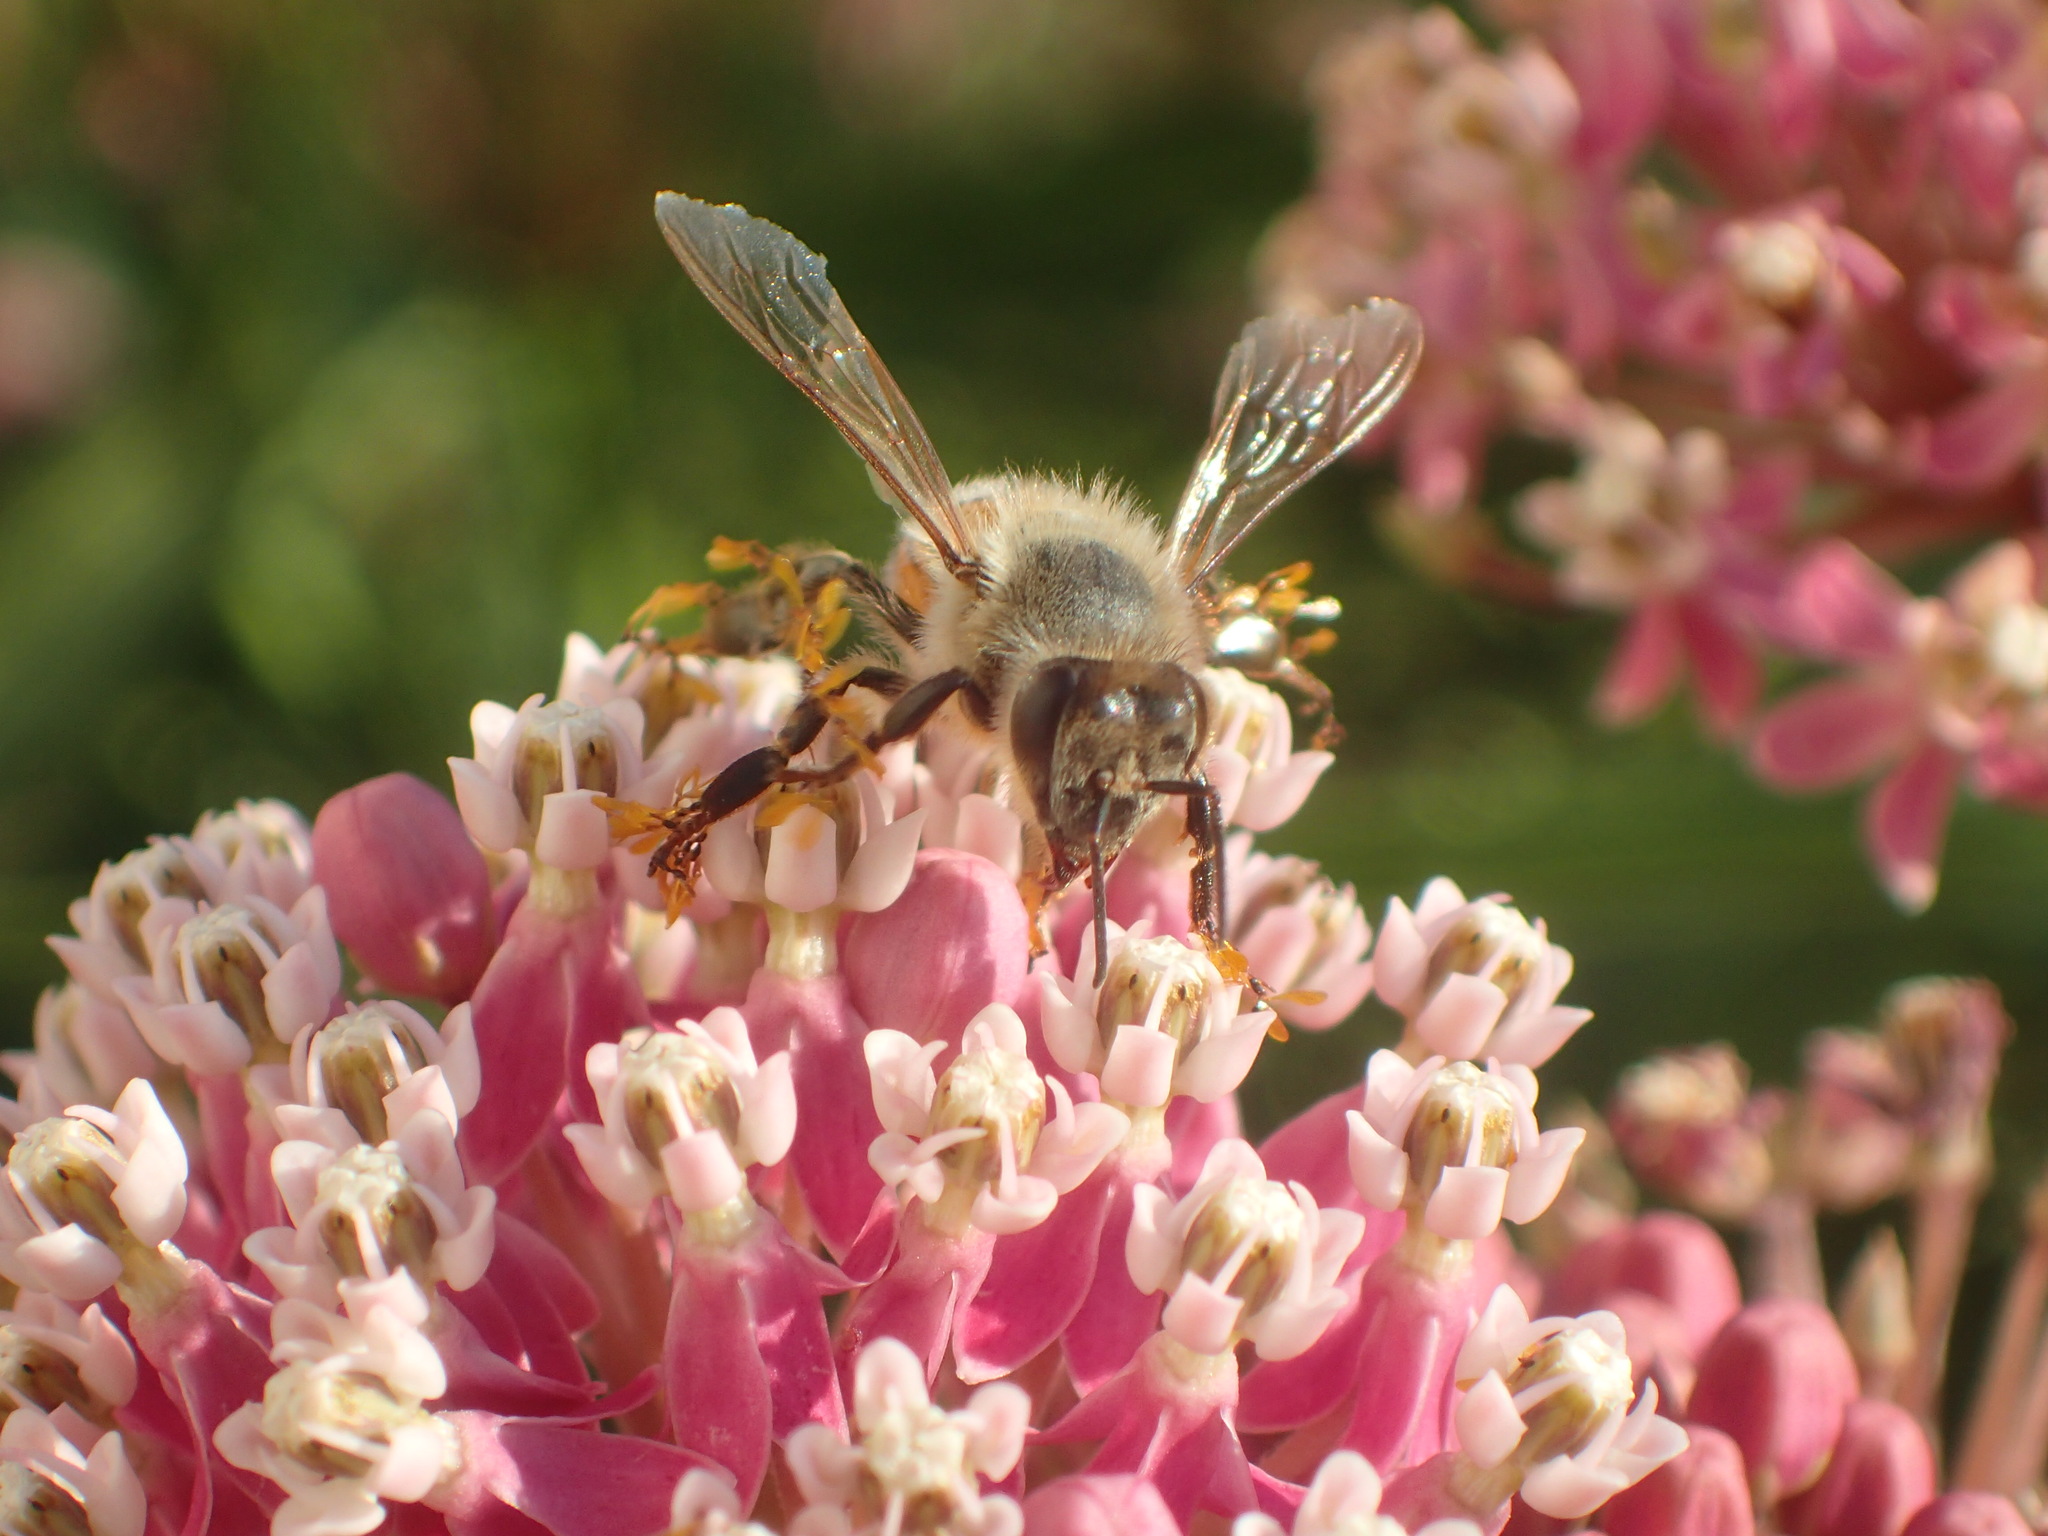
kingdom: Animalia
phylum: Arthropoda
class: Insecta
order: Hymenoptera
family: Apidae
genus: Apis
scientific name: Apis mellifera
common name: Honey bee
